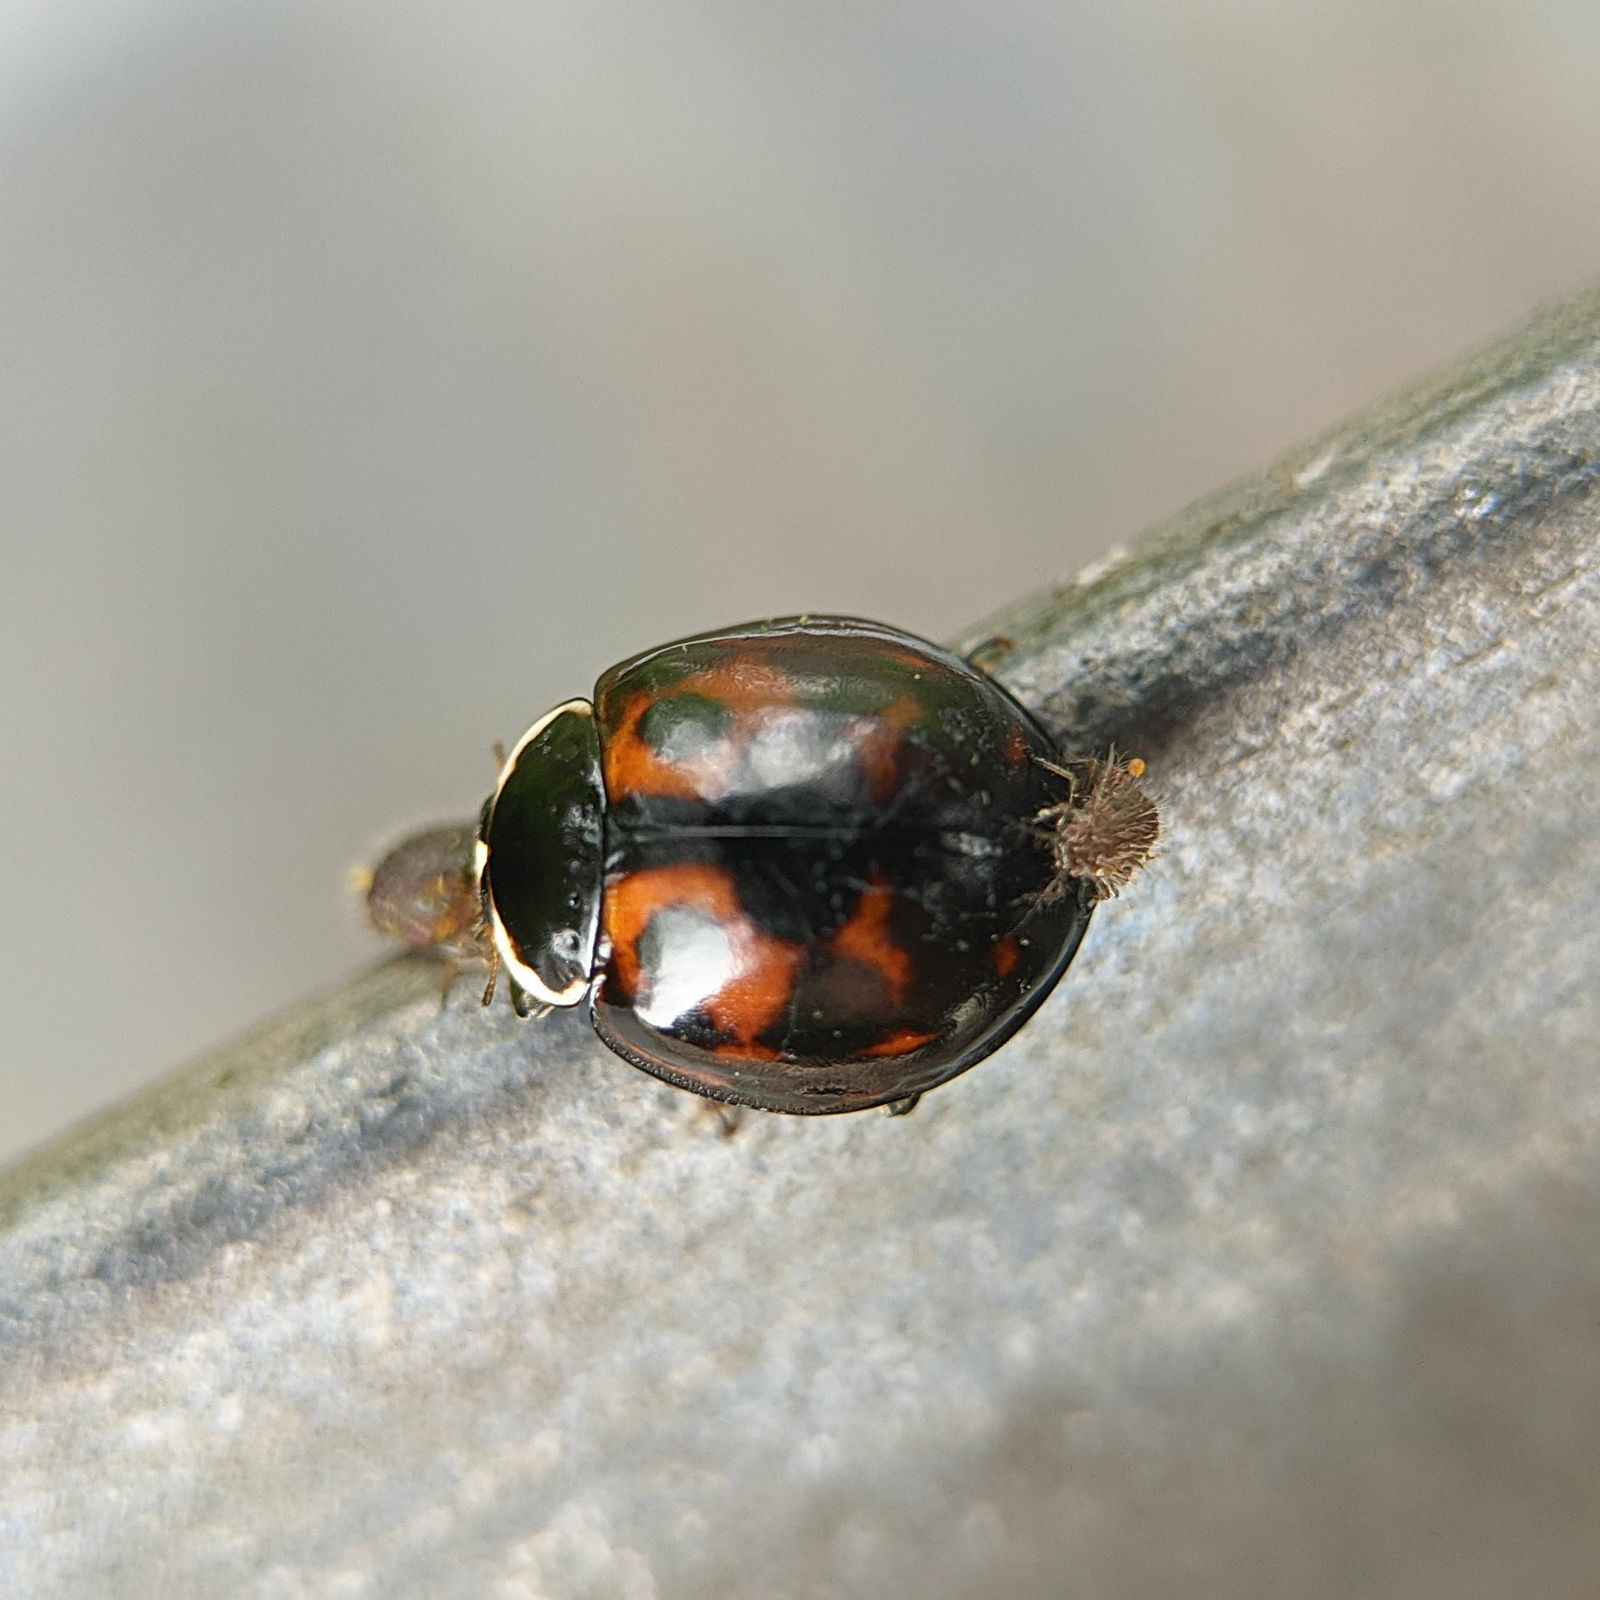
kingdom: Animalia
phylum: Arthropoda
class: Insecta
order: Coleoptera
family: Coccinellidae
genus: Harmonia
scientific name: Harmonia axyridis
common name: Harlequin ladybird
